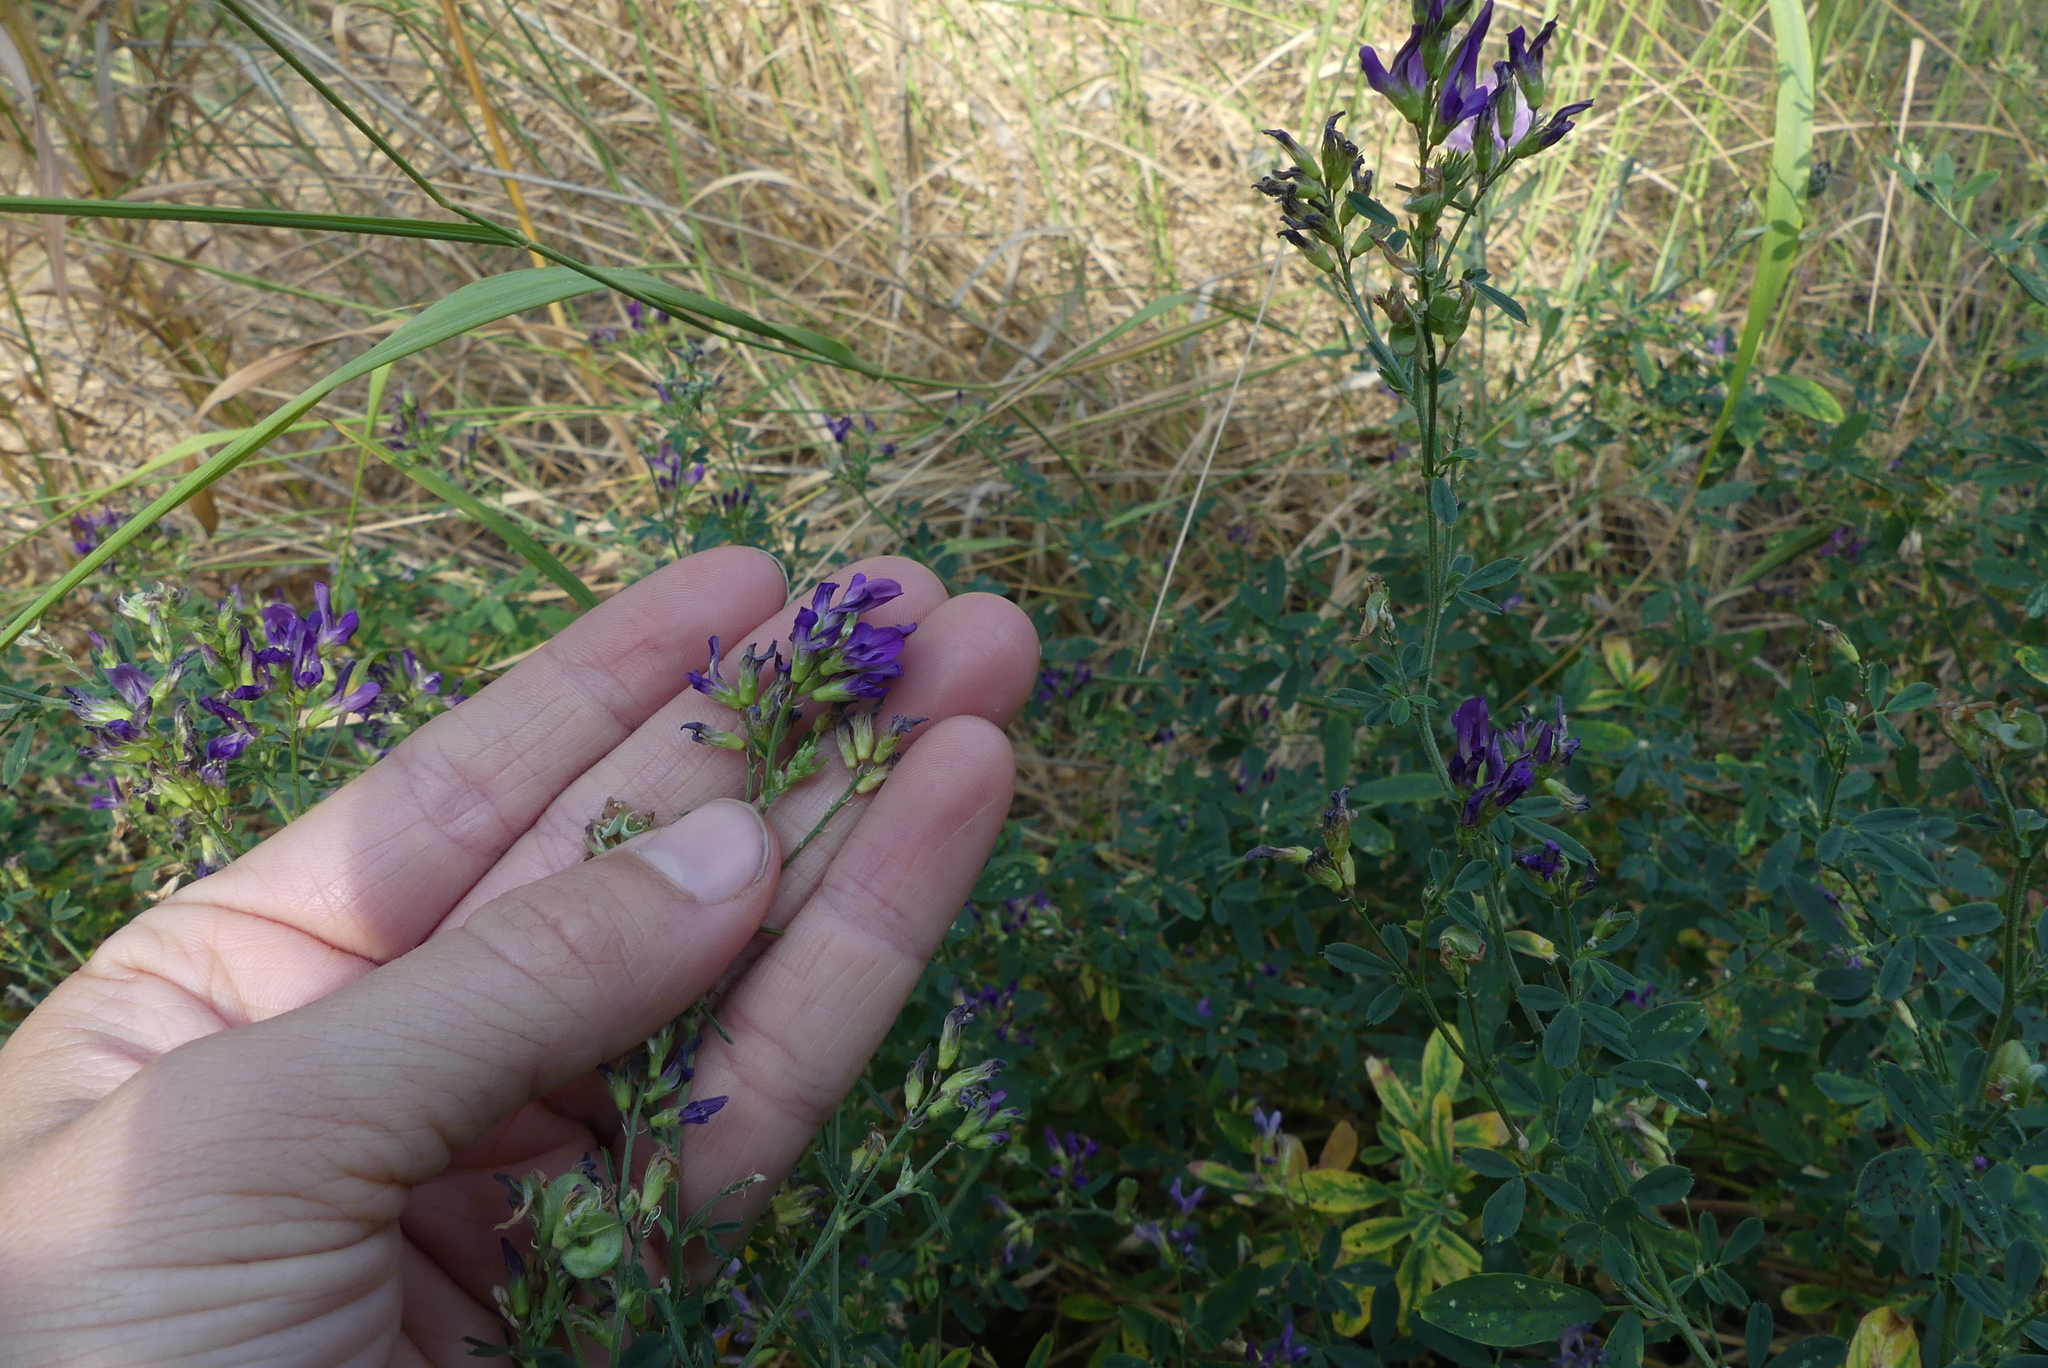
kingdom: Plantae
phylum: Tracheophyta
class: Magnoliopsida
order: Fabales
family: Fabaceae
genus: Medicago
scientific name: Medicago sativa
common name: Alfalfa
